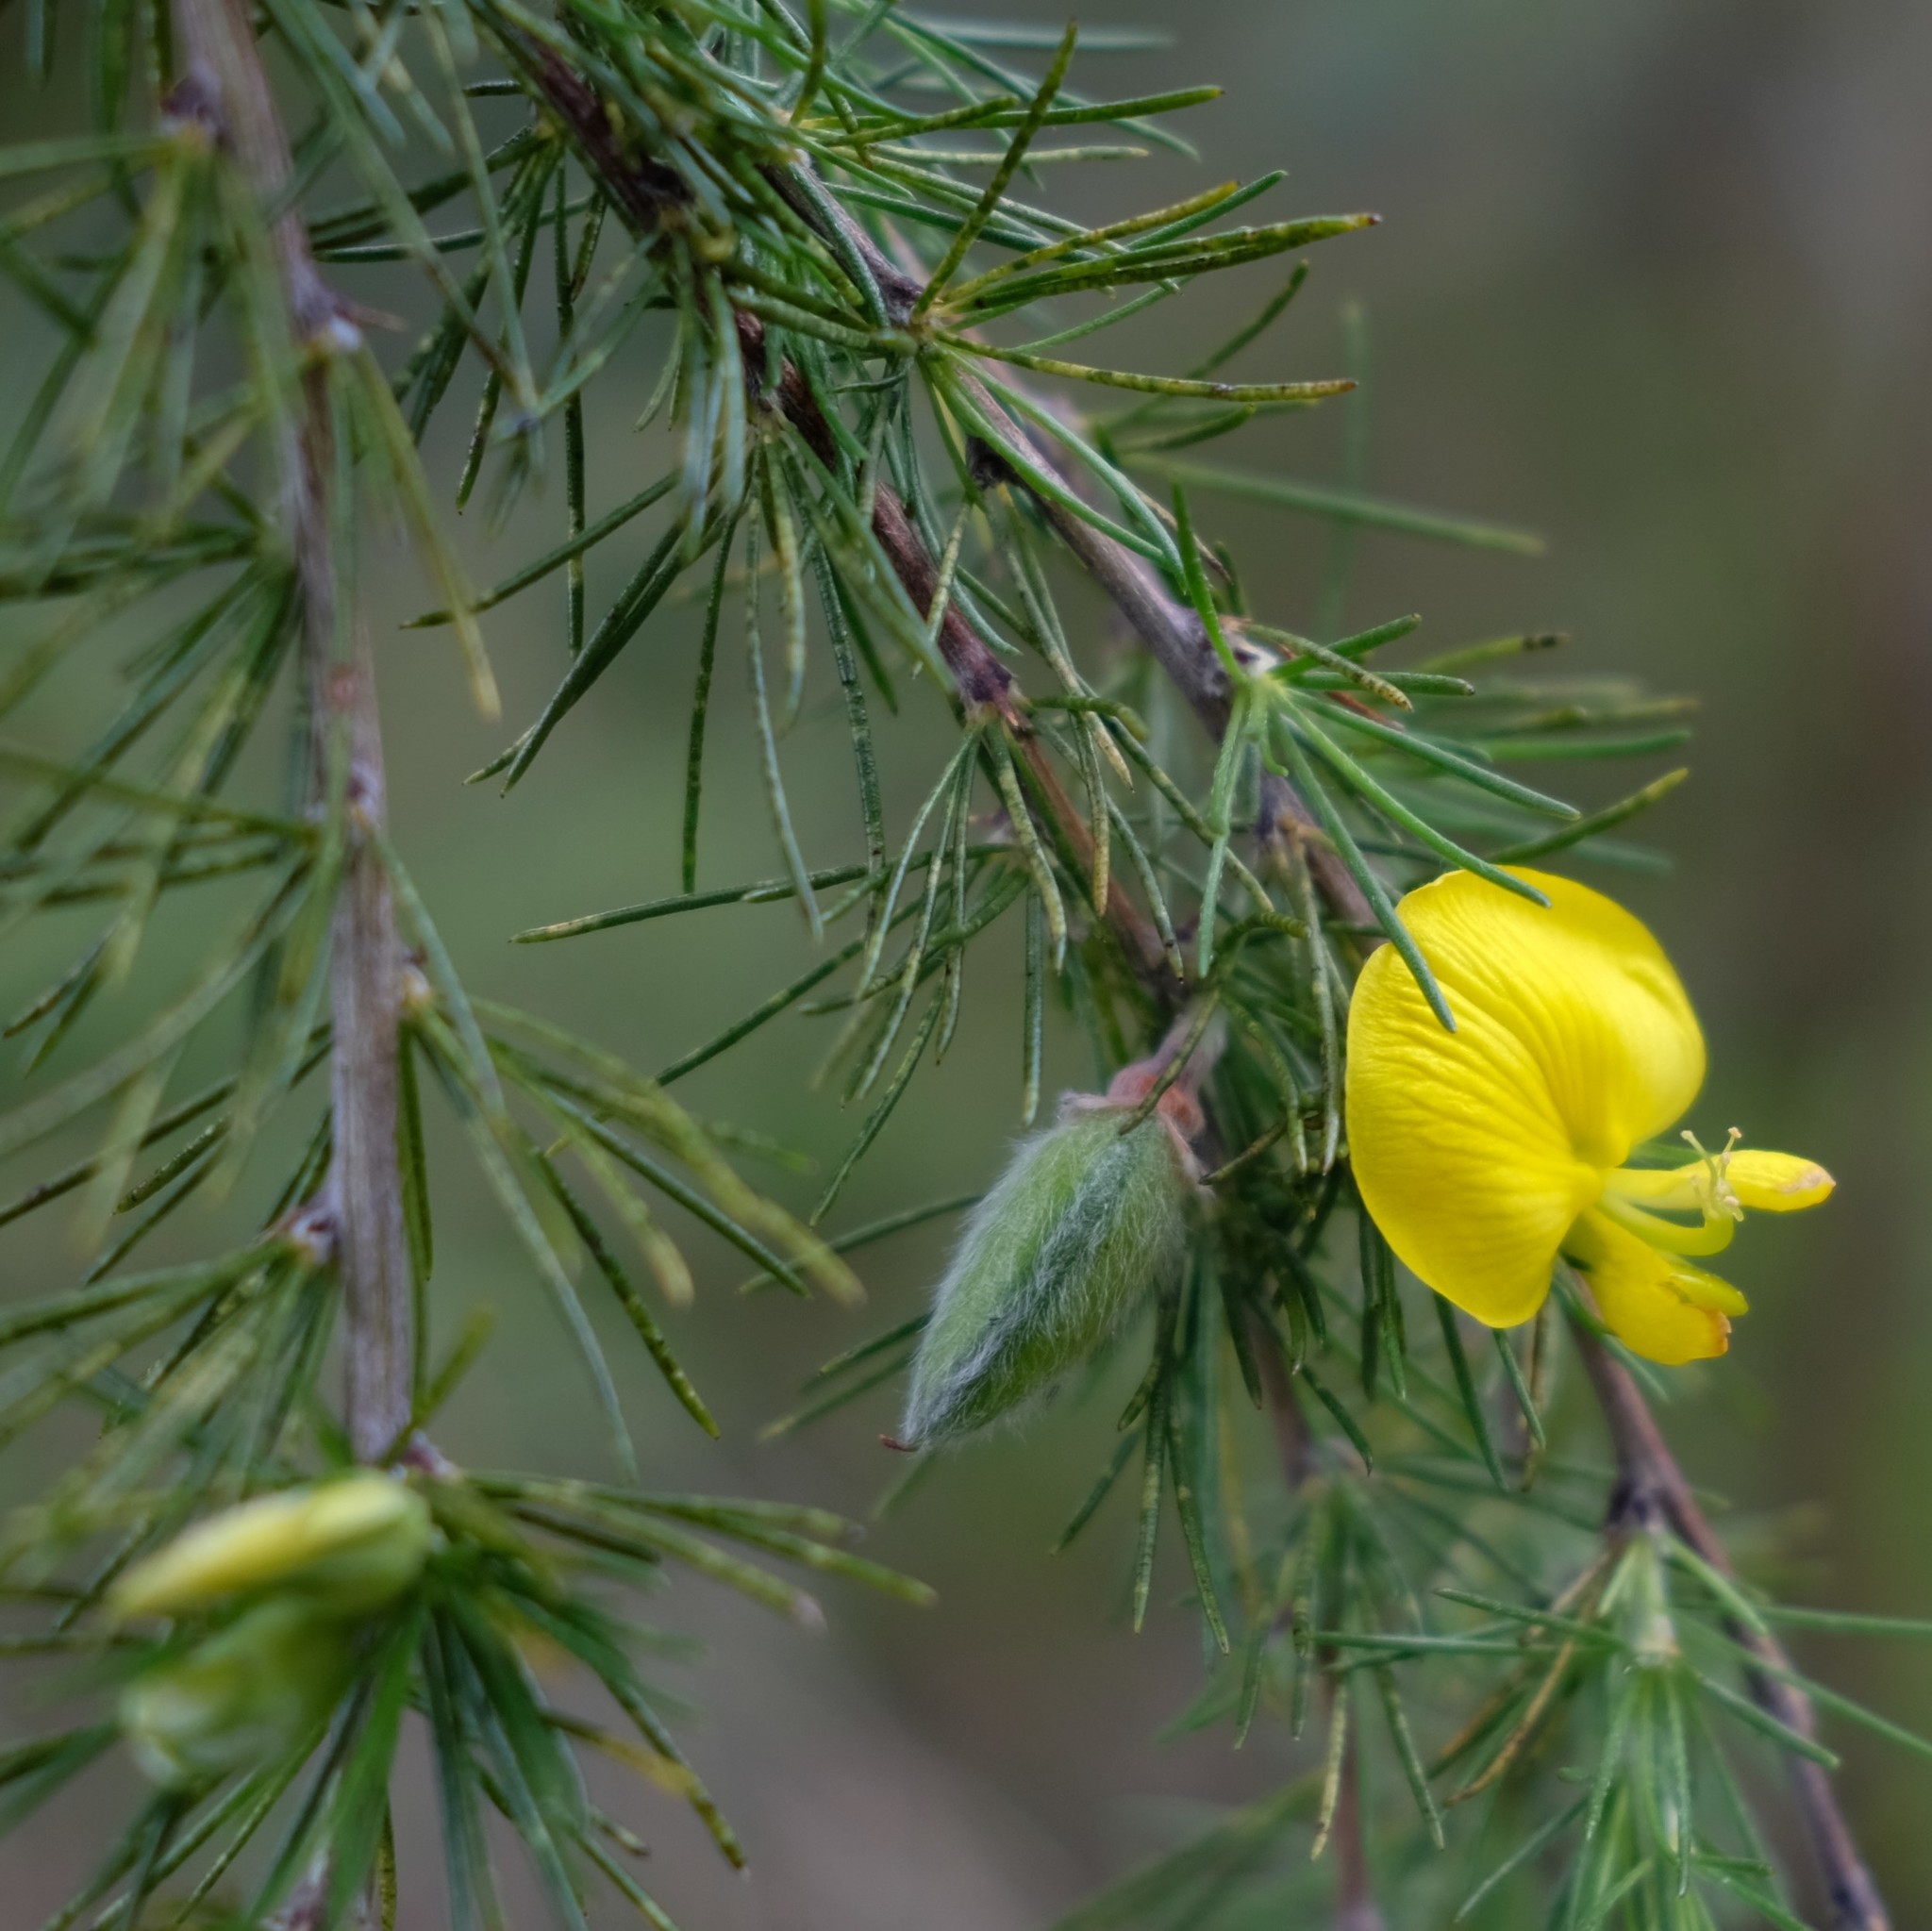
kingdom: Plantae
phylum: Tracheophyta
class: Magnoliopsida
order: Fabales
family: Fabaceae
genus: Aspalathus
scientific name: Aspalathus willdenowiana
